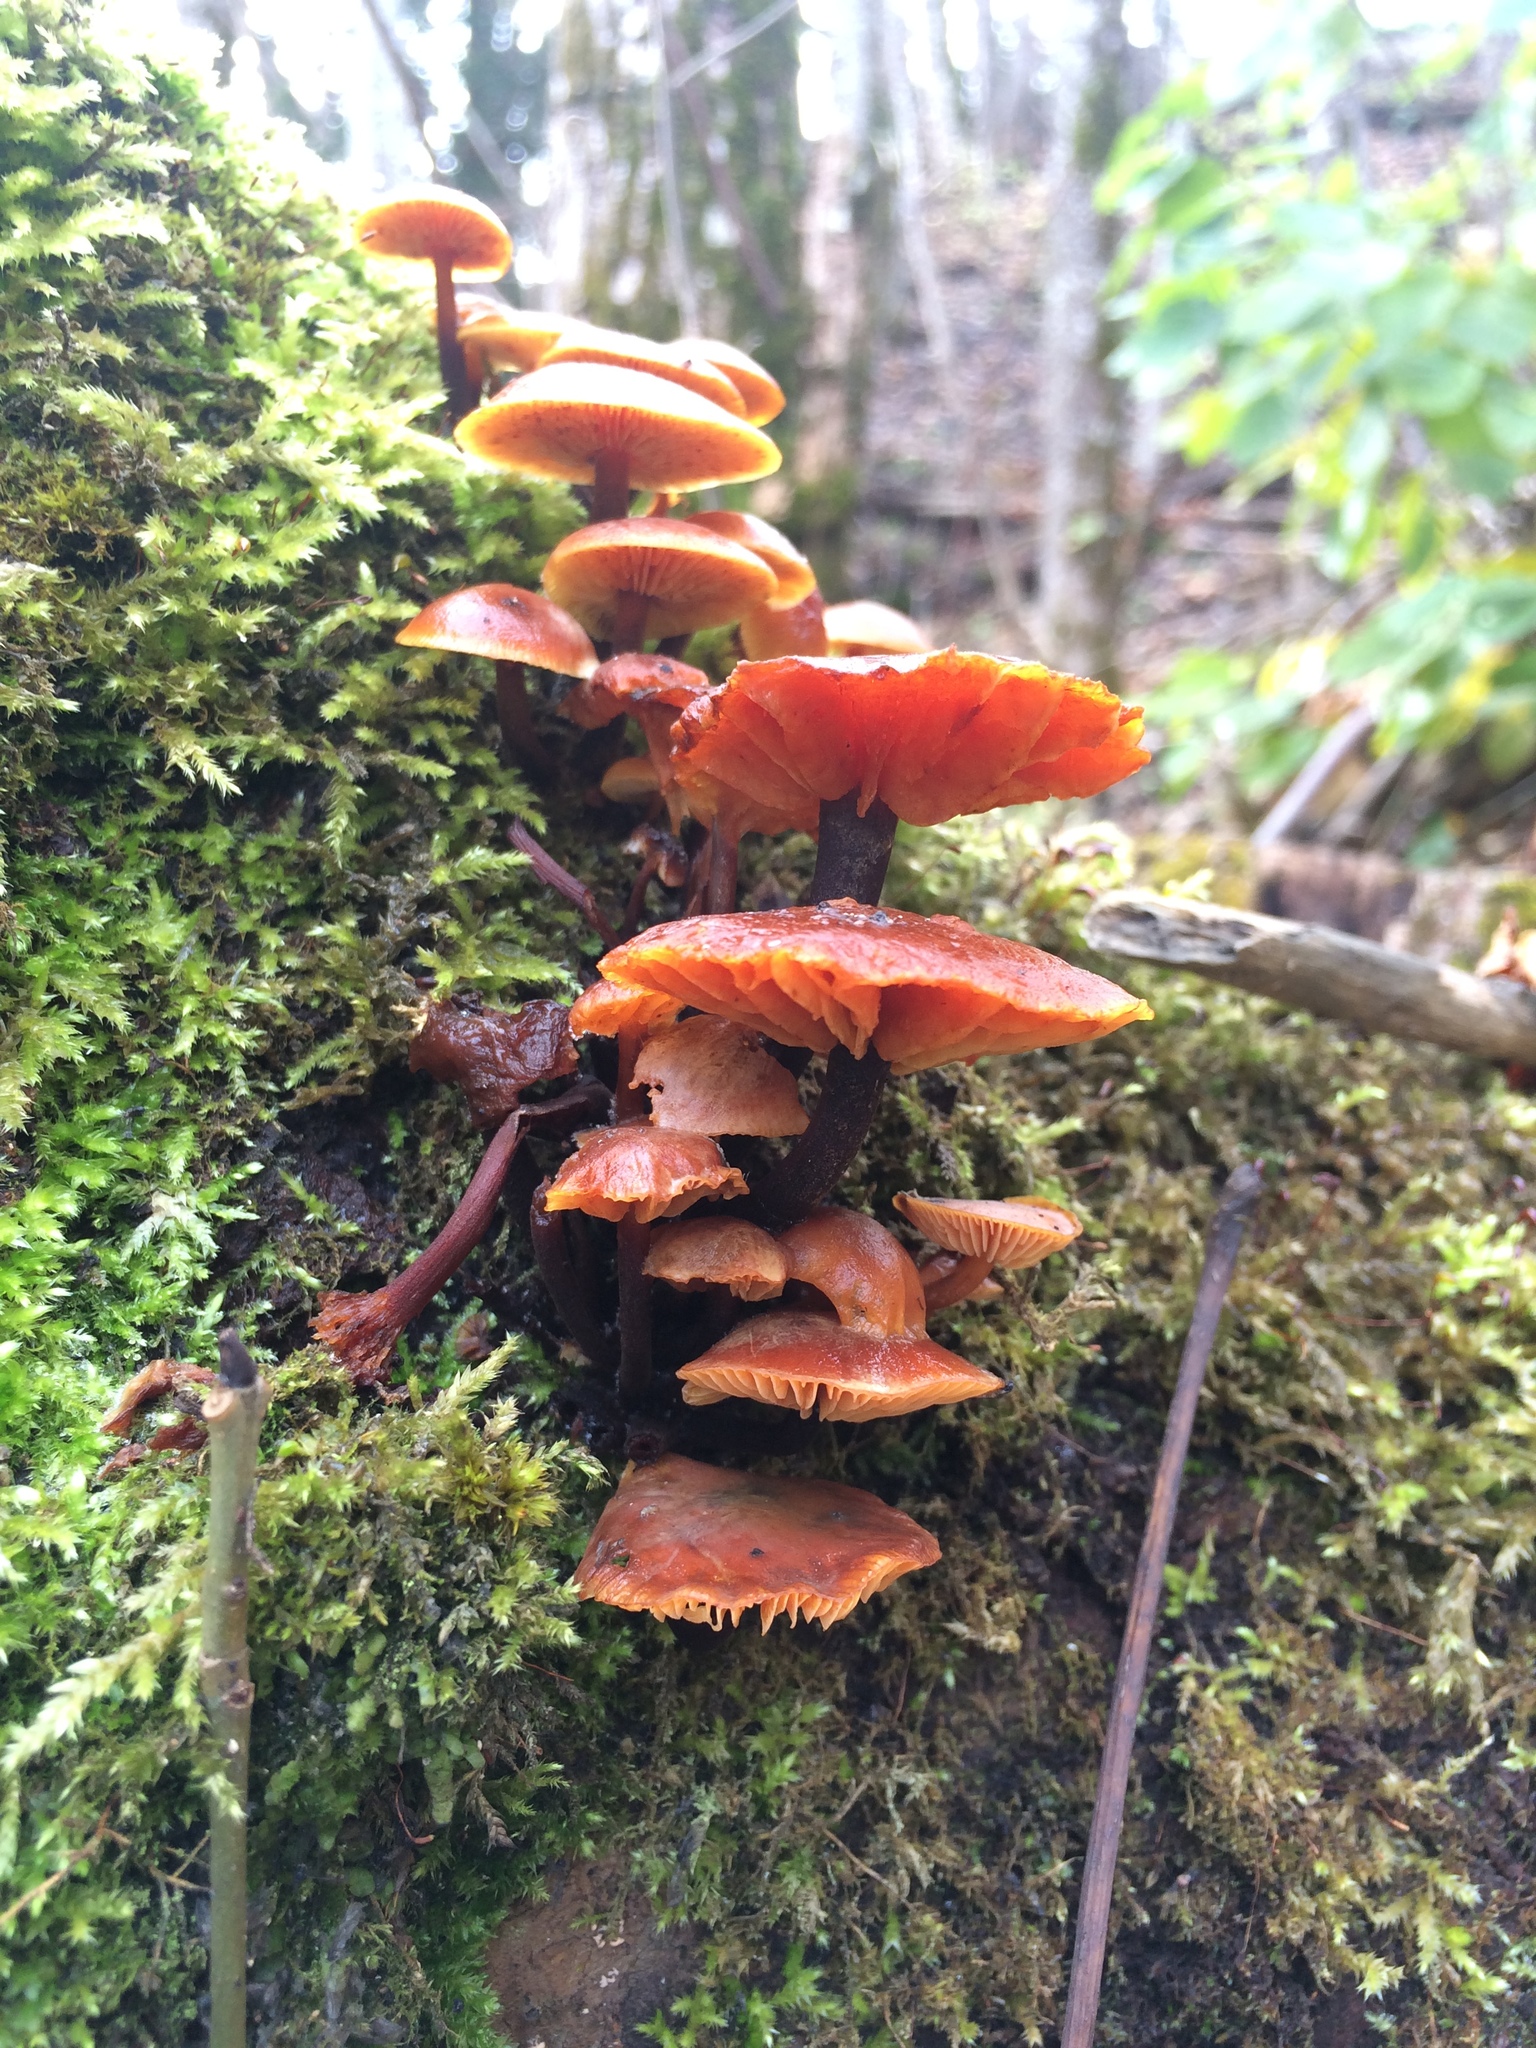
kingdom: Fungi
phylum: Basidiomycota
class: Agaricomycetes
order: Agaricales
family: Physalacriaceae
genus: Flammulina
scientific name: Flammulina
